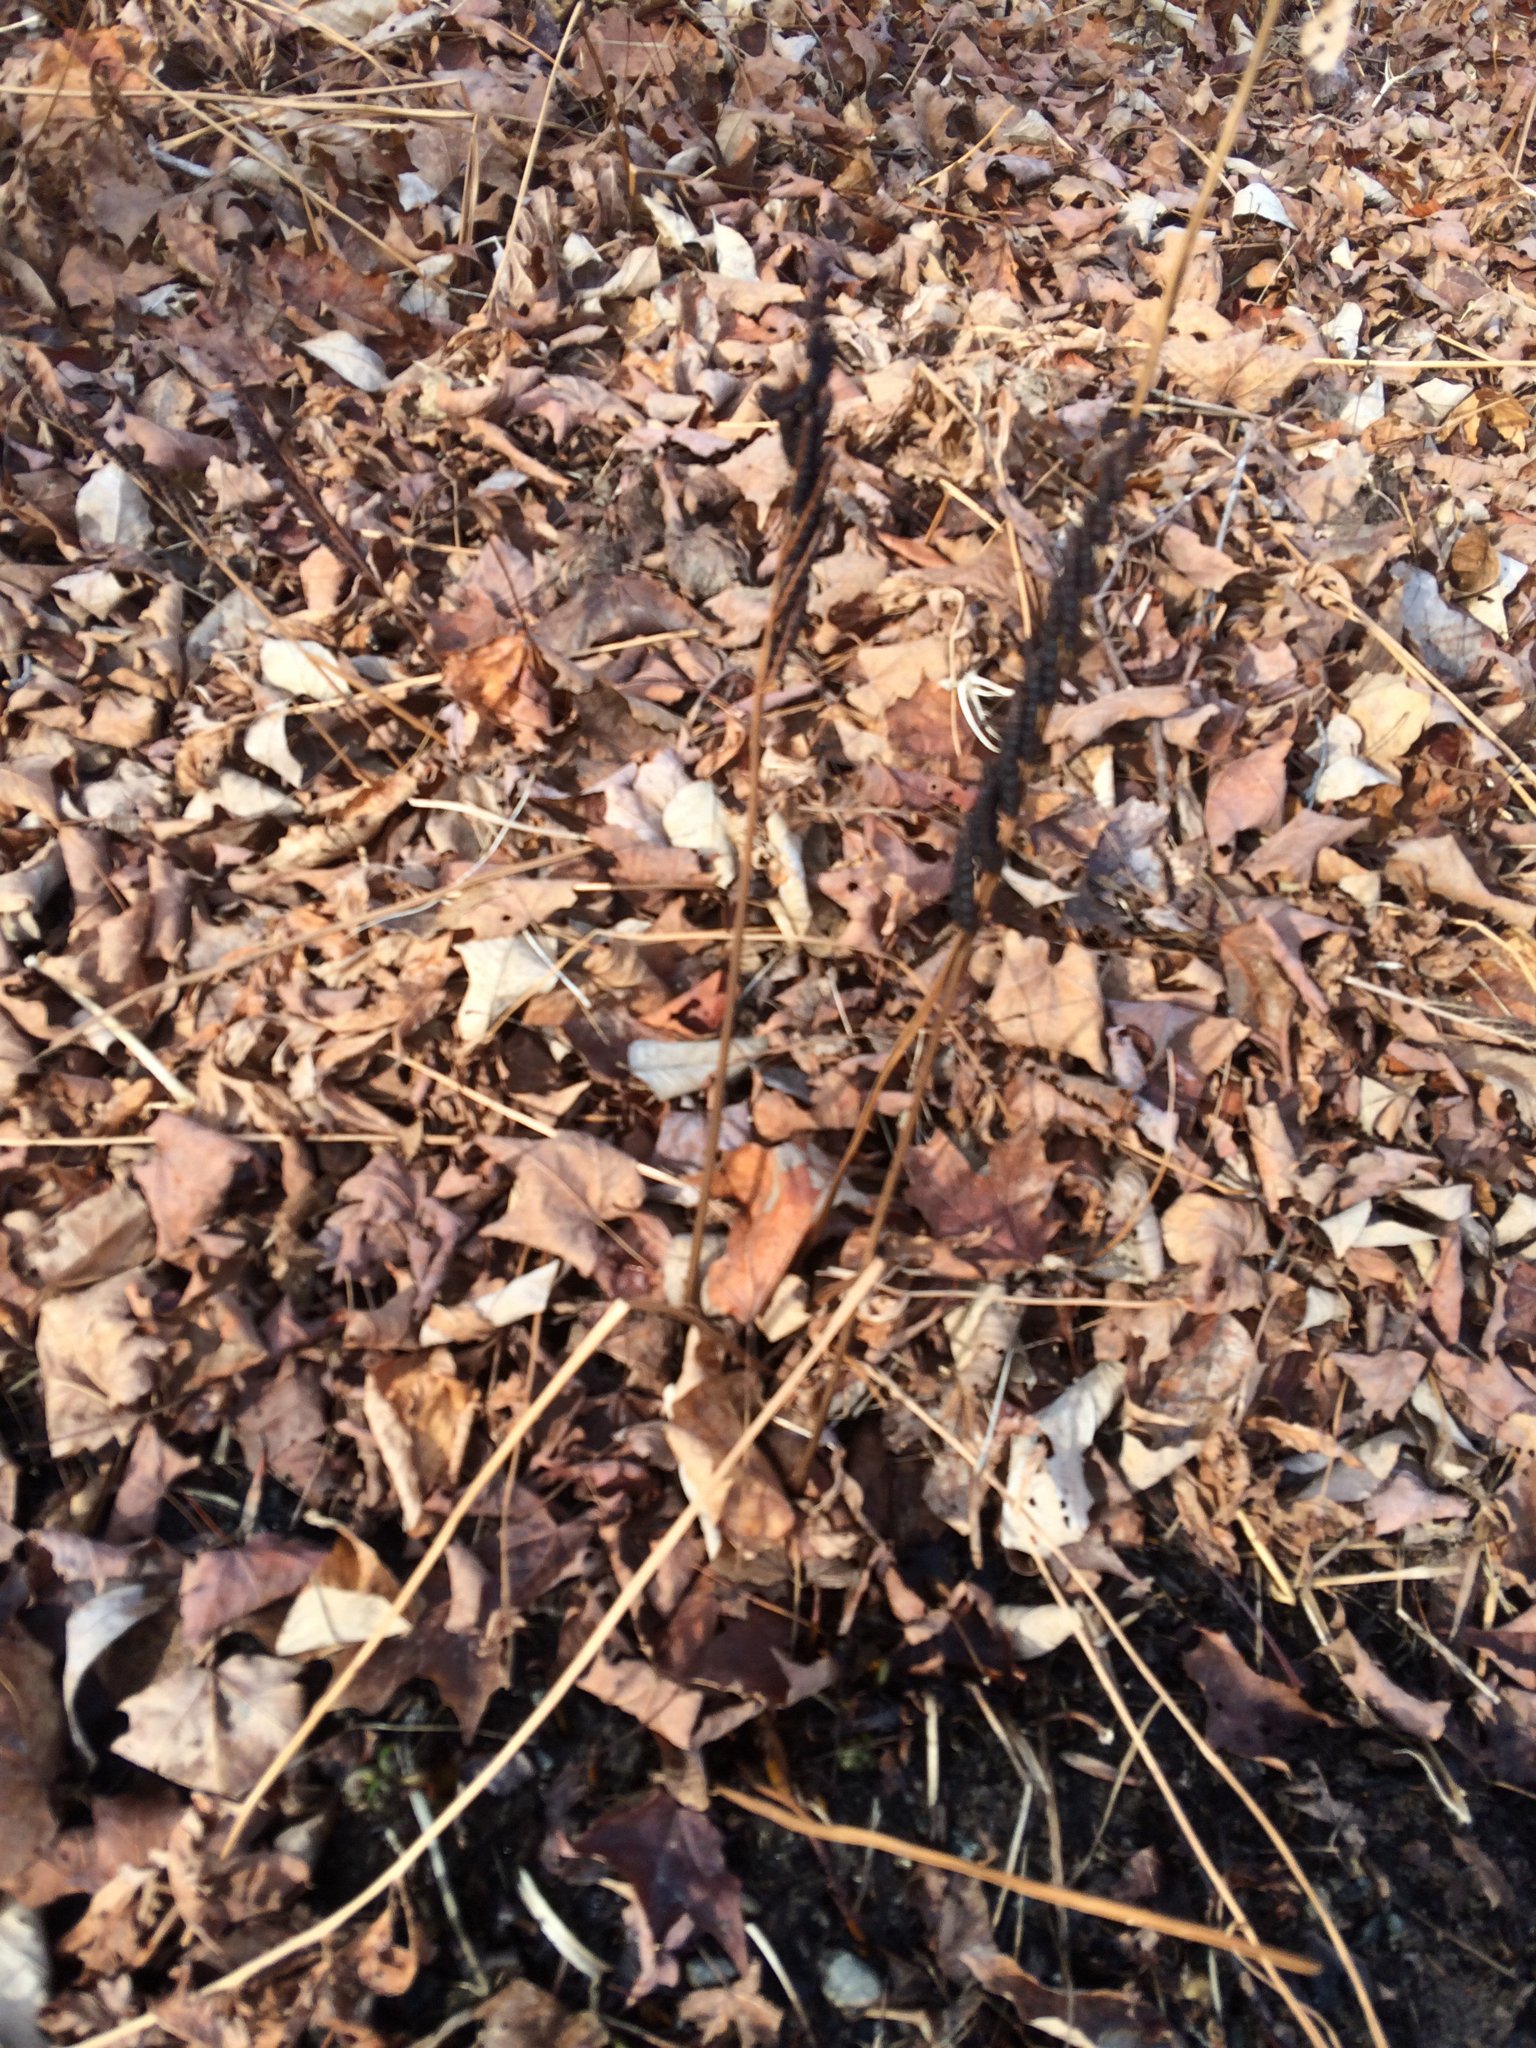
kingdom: Plantae
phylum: Tracheophyta
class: Polypodiopsida
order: Polypodiales
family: Onocleaceae
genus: Onoclea
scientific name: Onoclea sensibilis
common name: Sensitive fern
